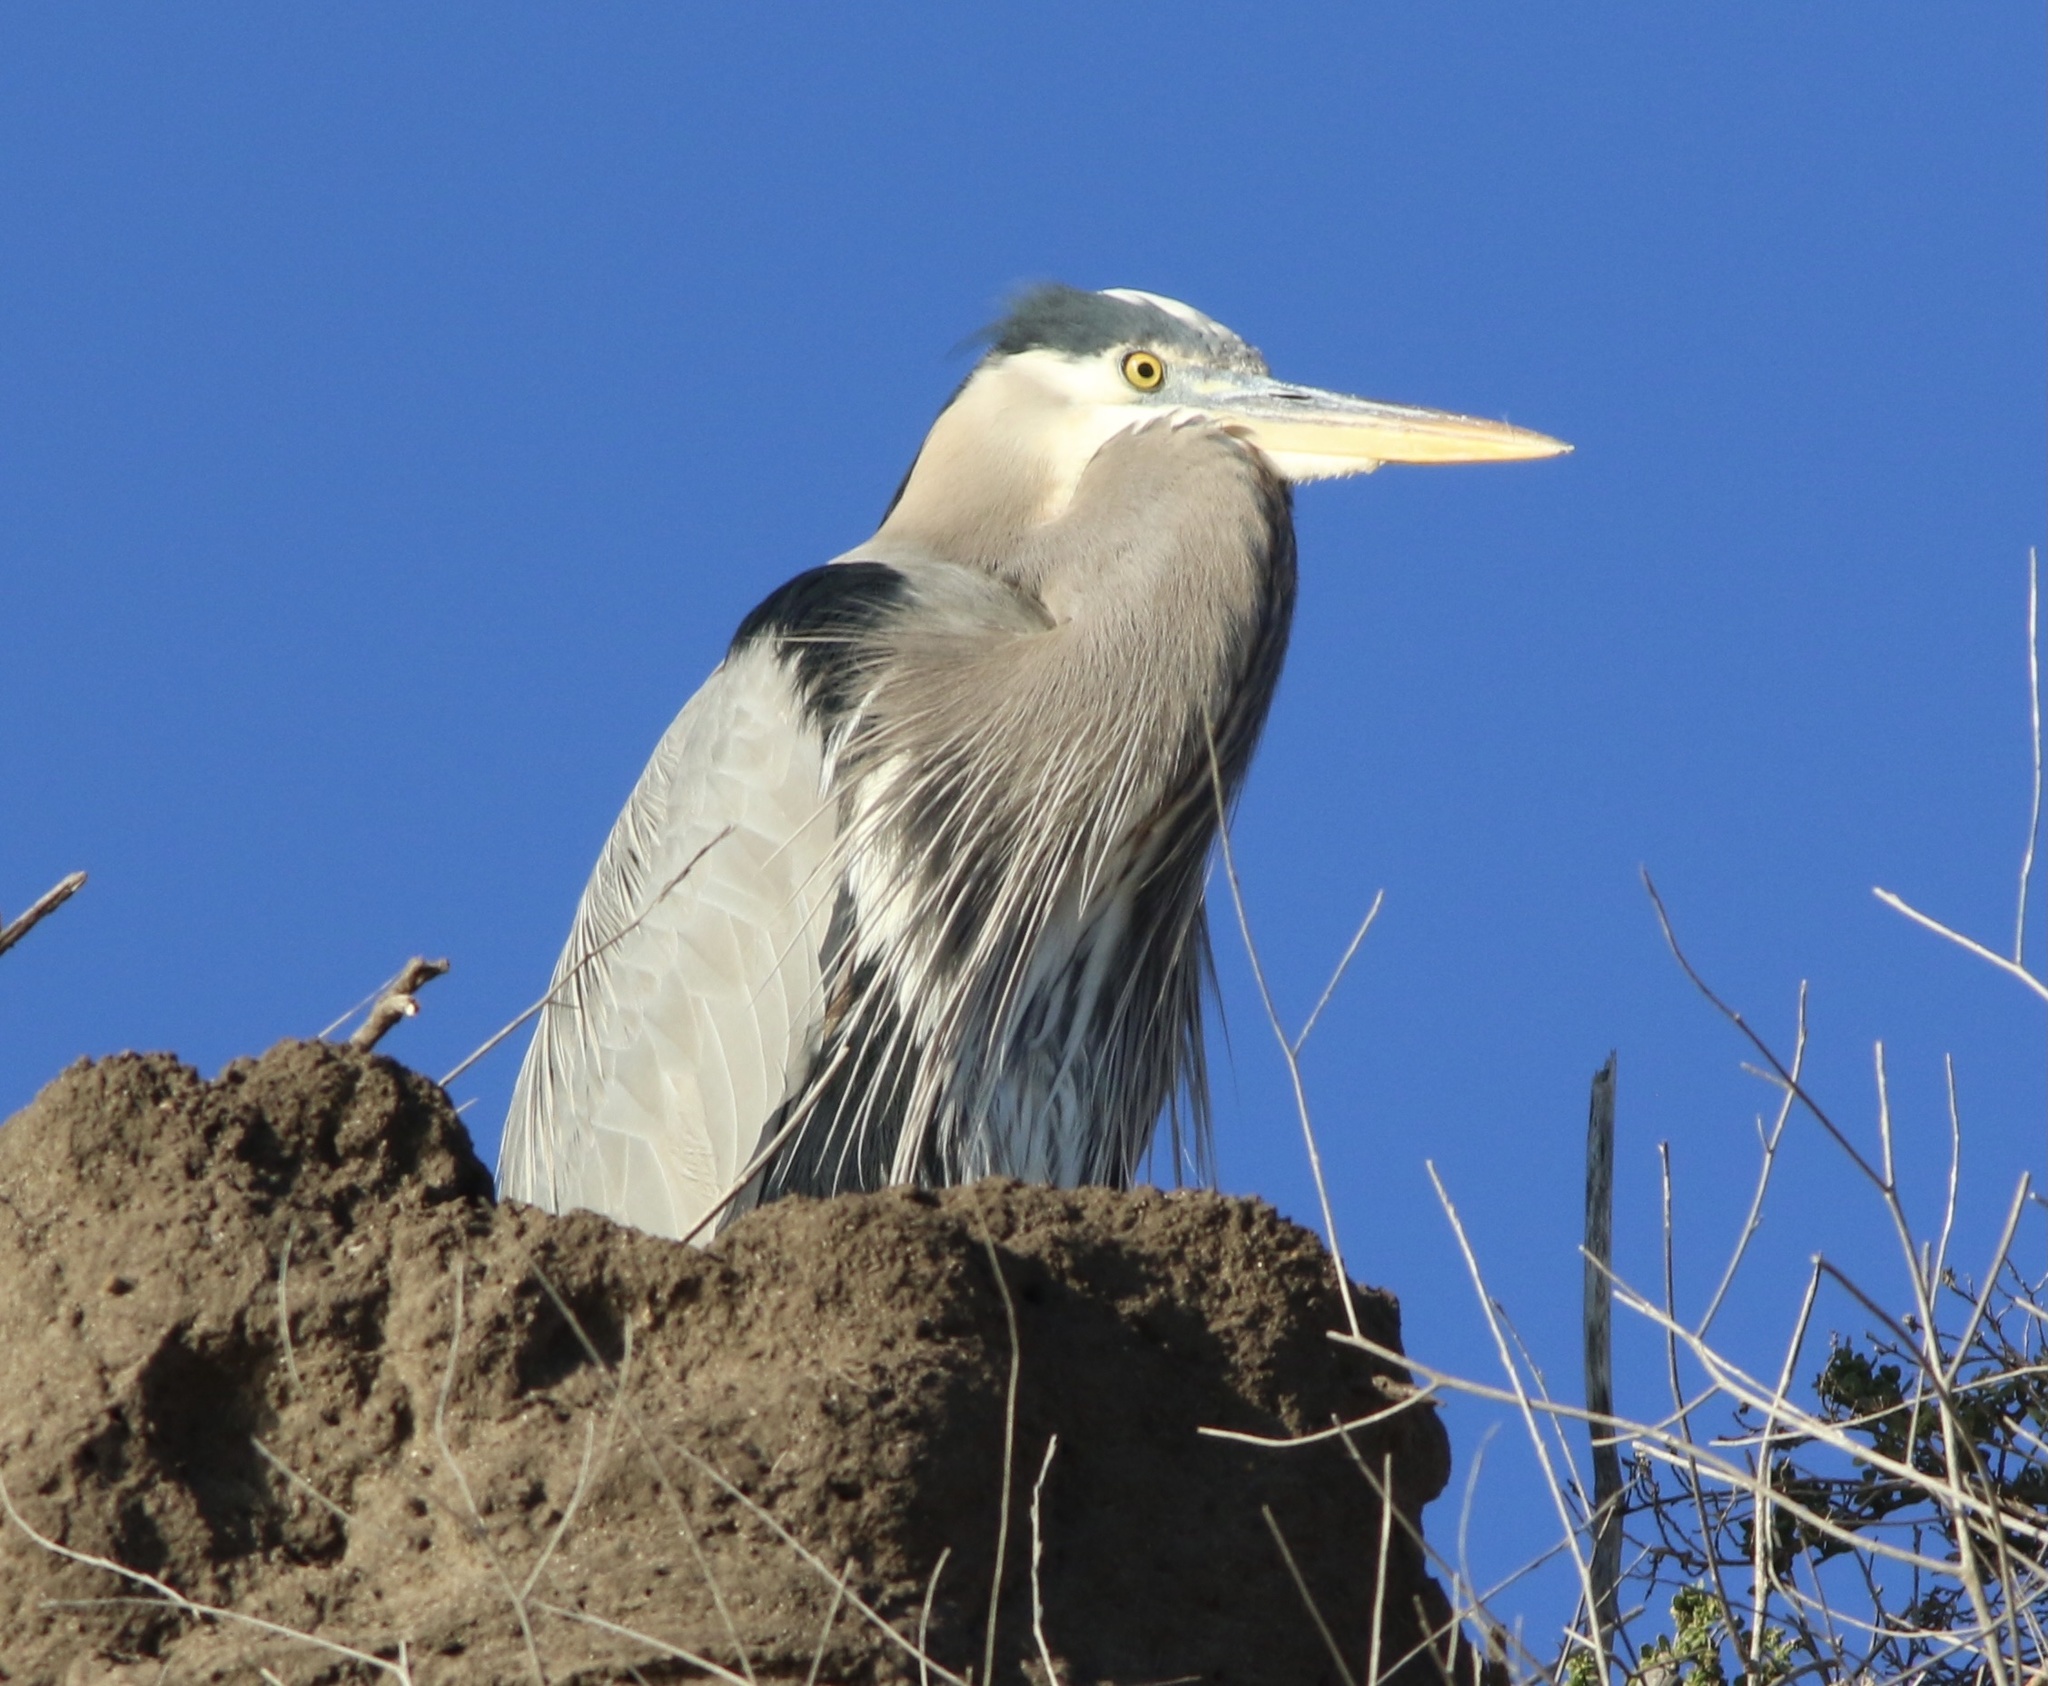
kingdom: Animalia
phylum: Chordata
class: Aves
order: Pelecaniformes
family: Ardeidae
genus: Ardea
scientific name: Ardea herodias
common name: Great blue heron
